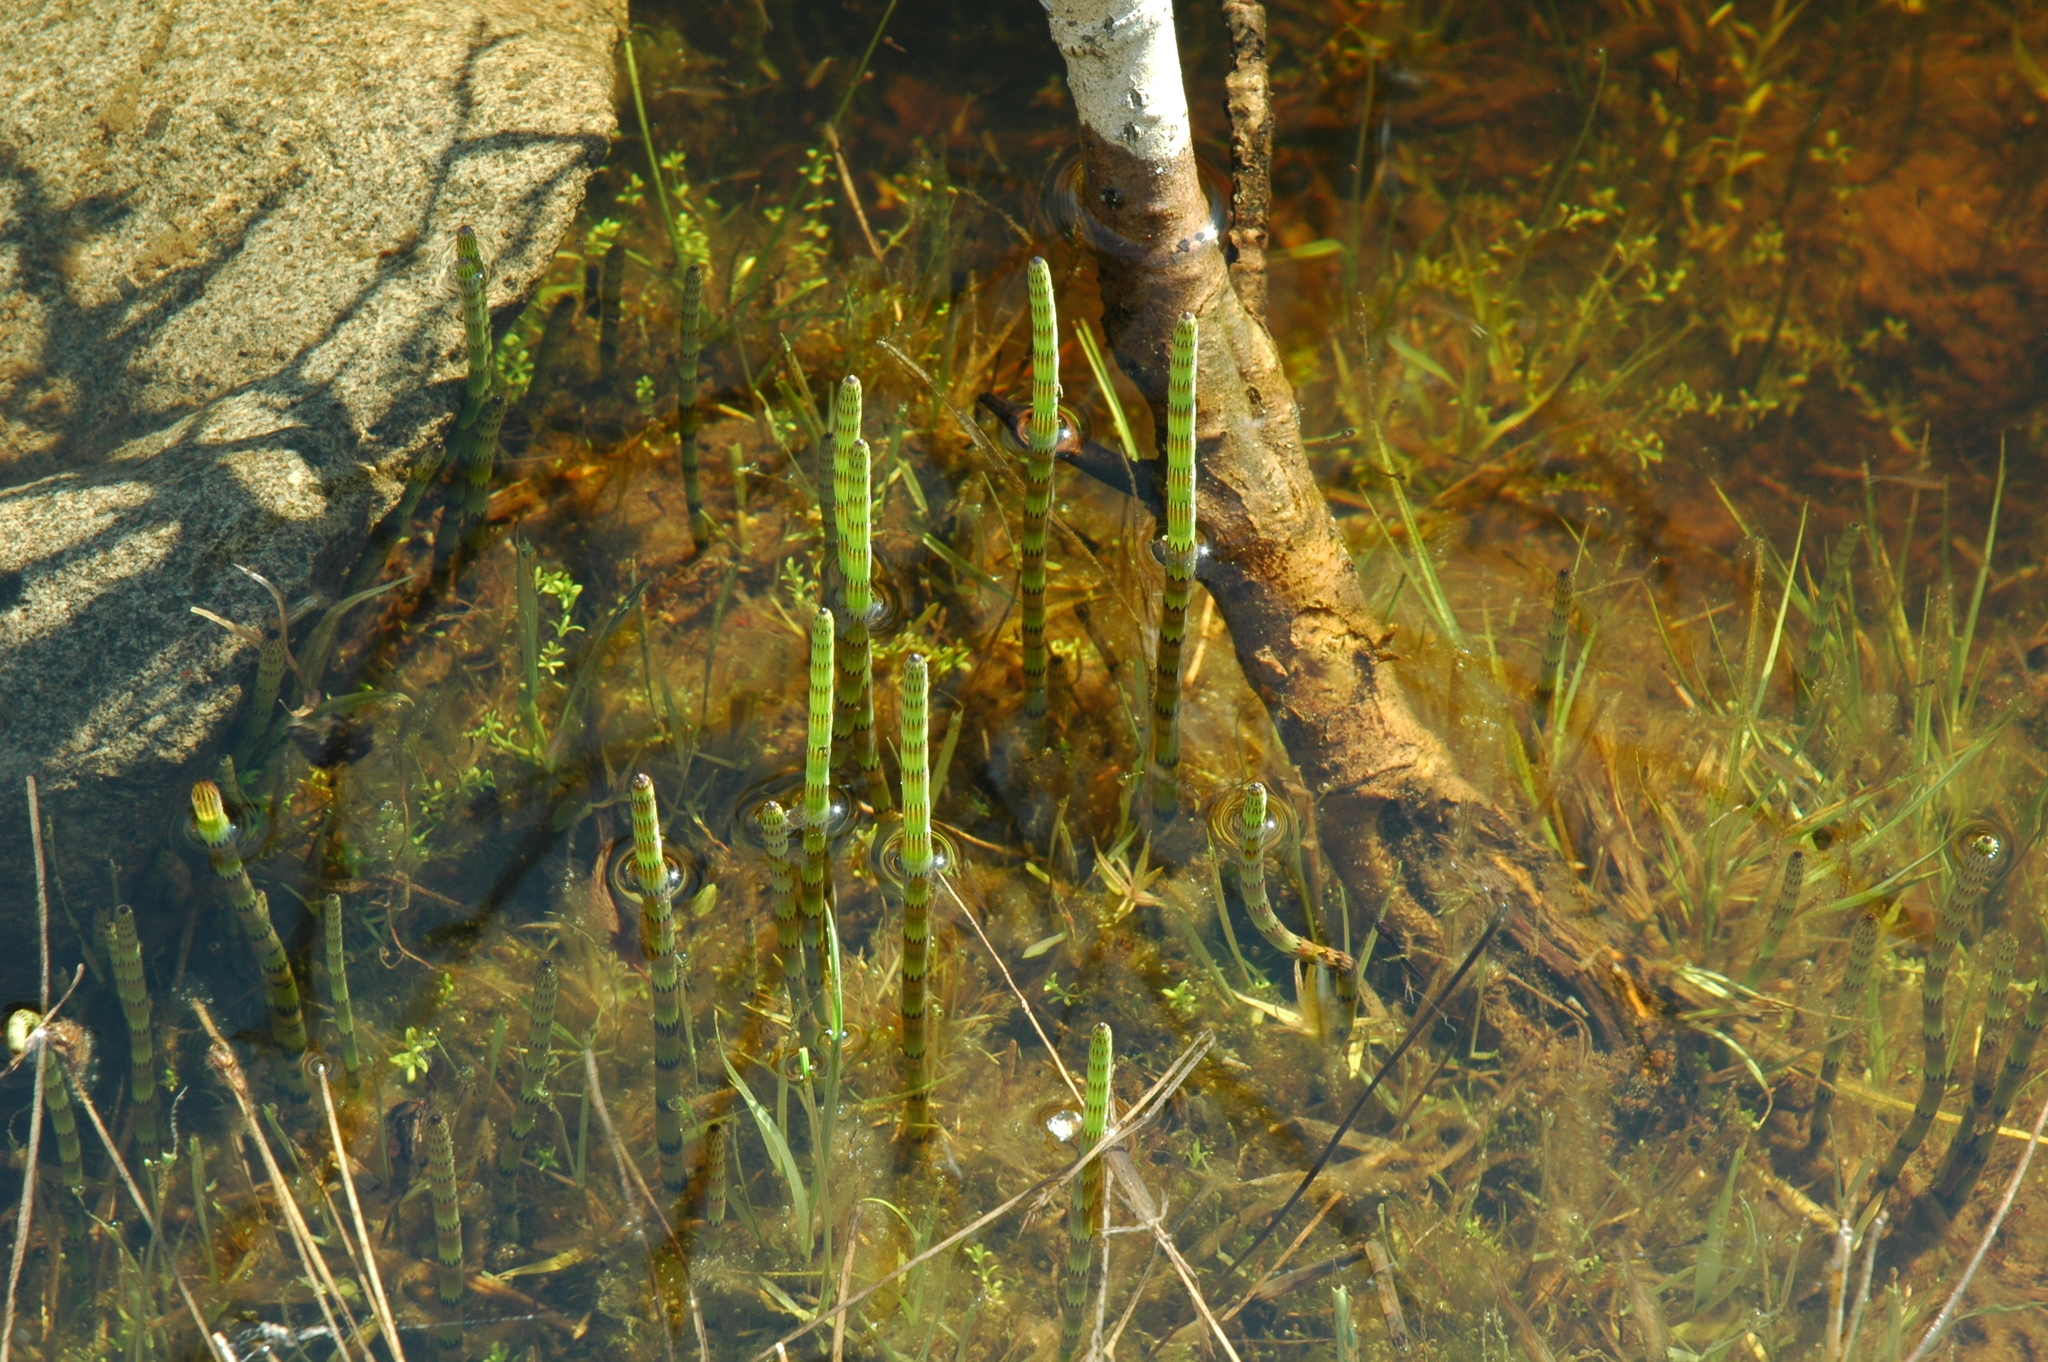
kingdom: Plantae
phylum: Tracheophyta
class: Polypodiopsida
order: Equisetales
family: Equisetaceae
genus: Equisetum
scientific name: Equisetum fluviatile
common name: Water horsetail
